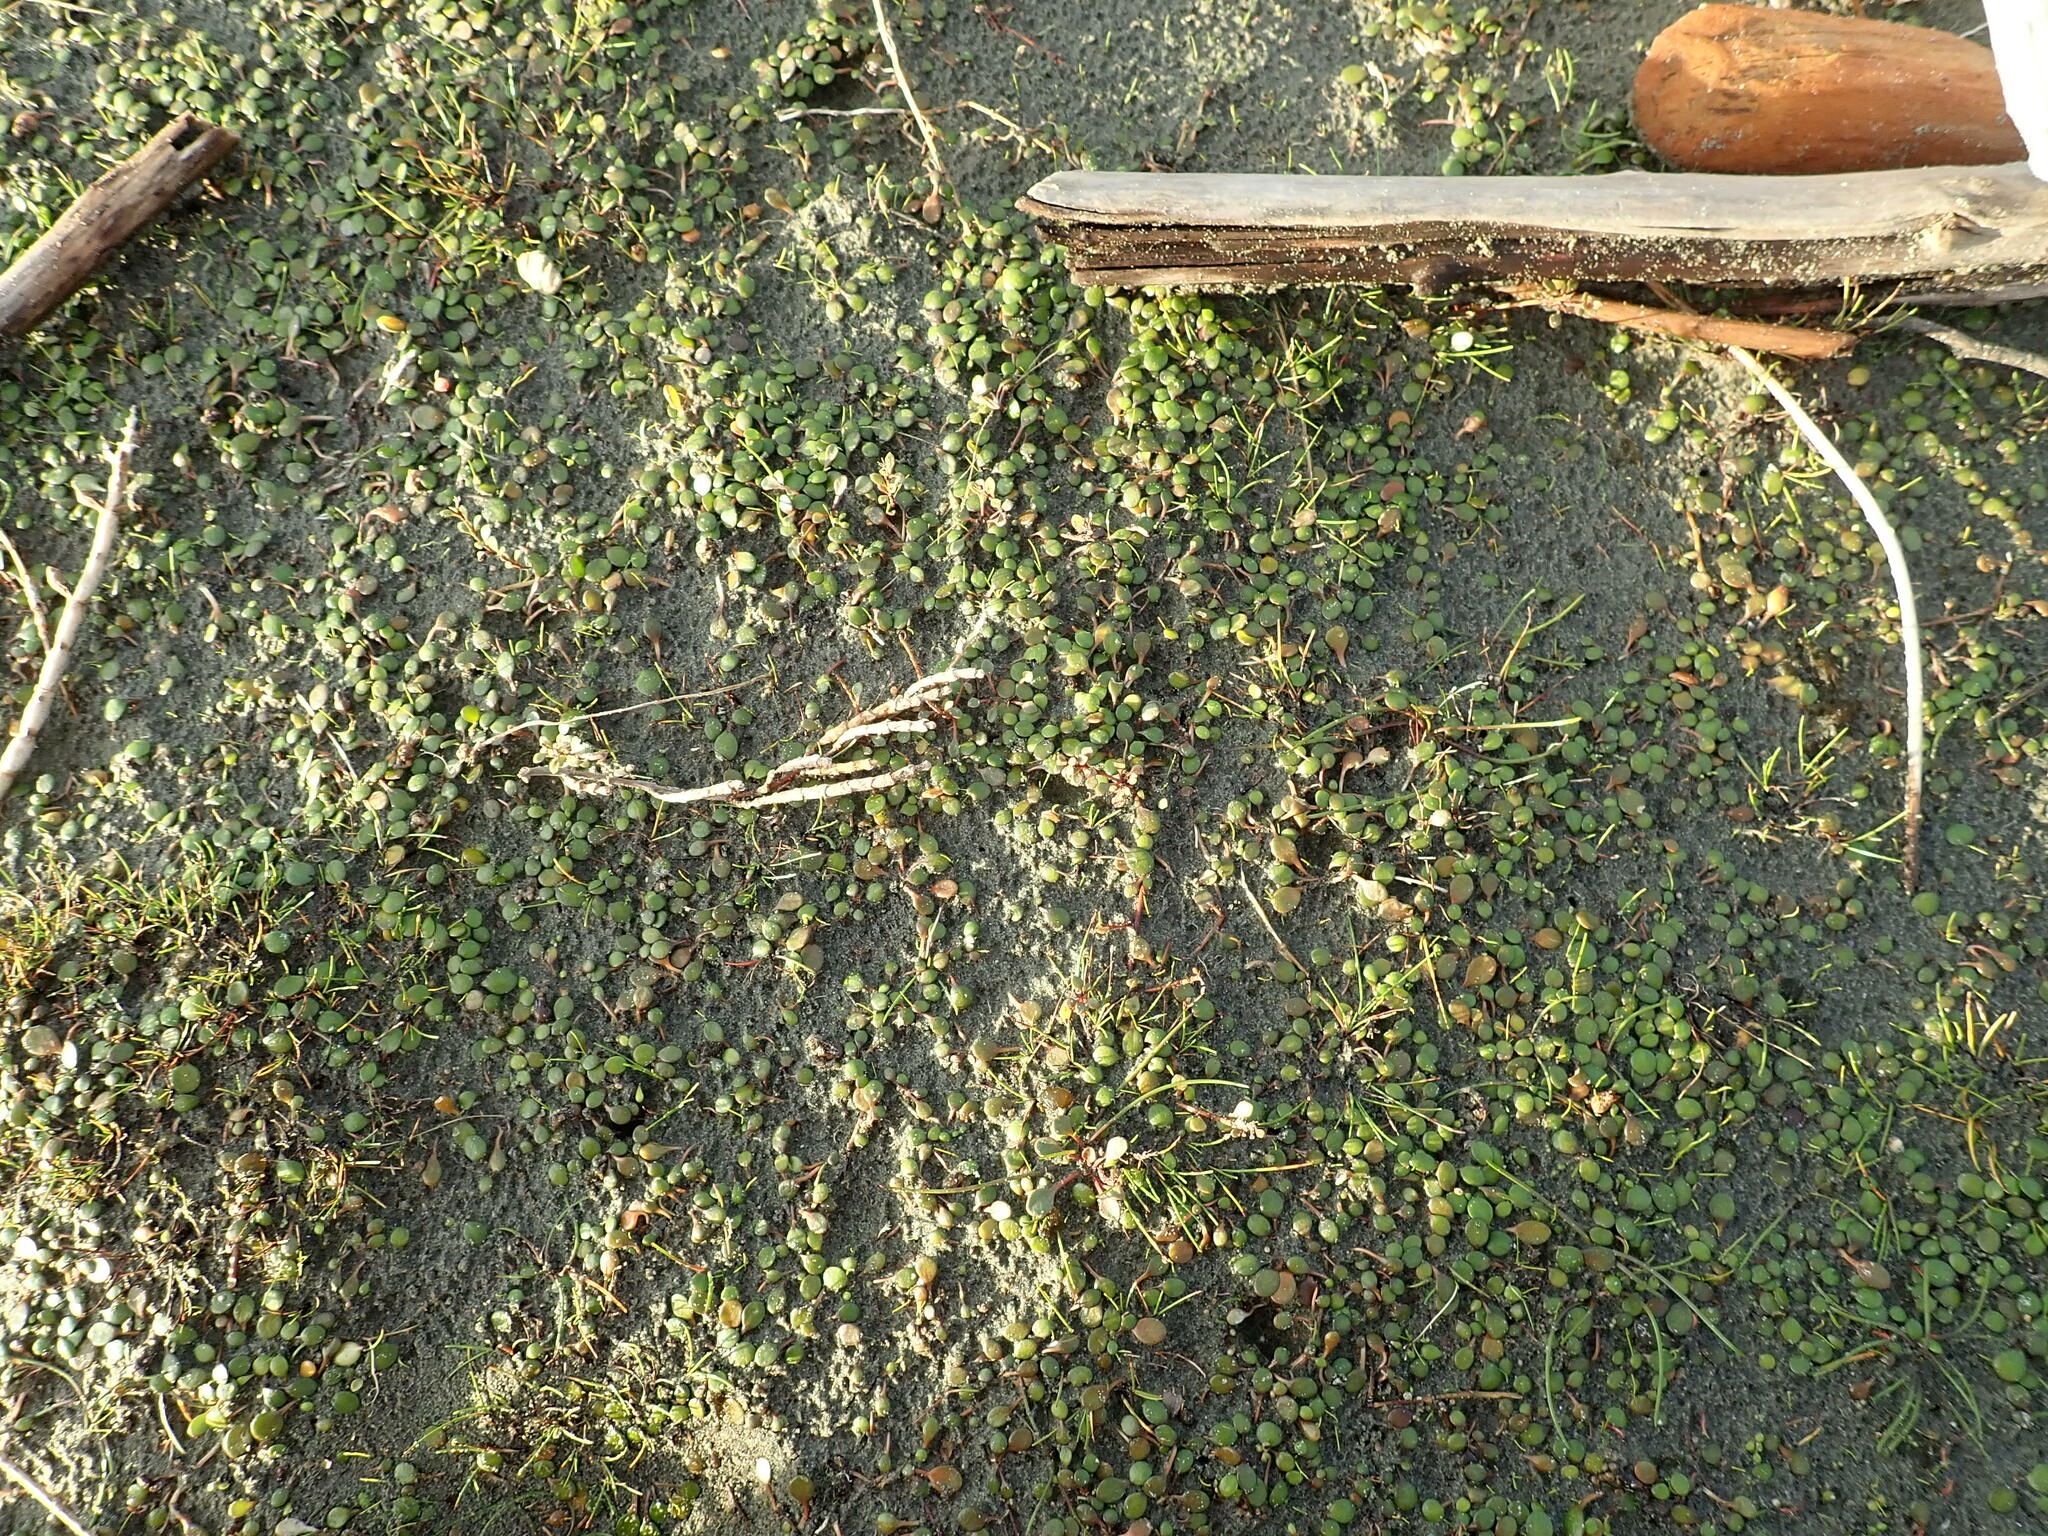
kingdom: Plantae
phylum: Tracheophyta
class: Magnoliopsida
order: Asterales
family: Goodeniaceae
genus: Goodenia
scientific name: Goodenia heenanii
